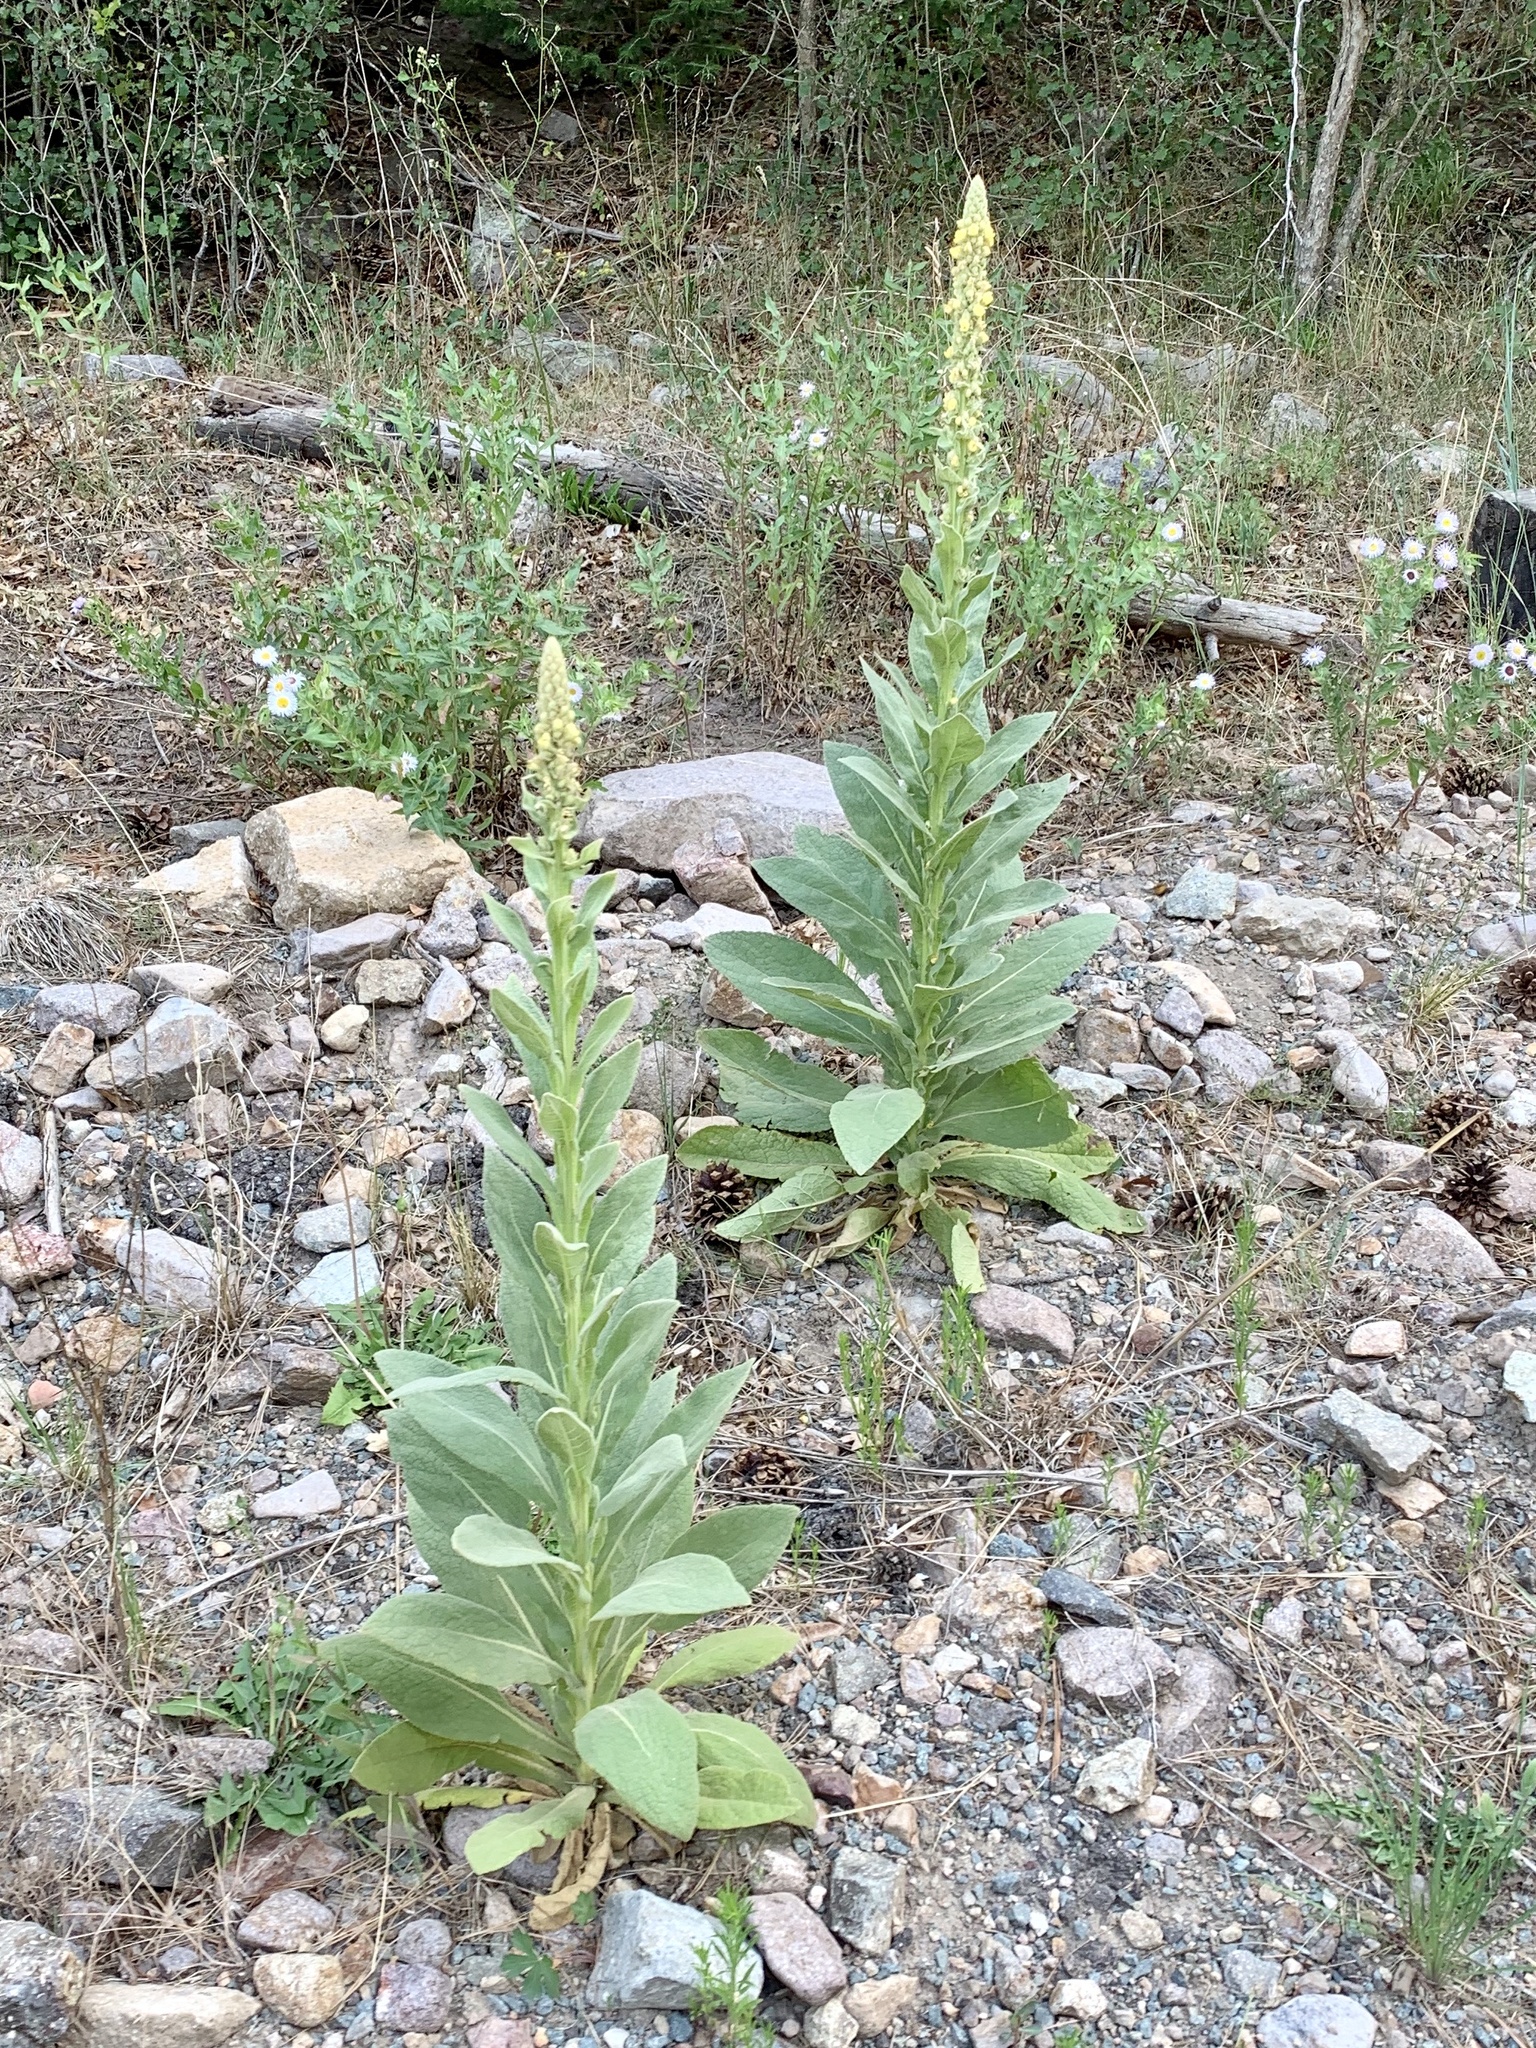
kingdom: Plantae
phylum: Tracheophyta
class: Magnoliopsida
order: Lamiales
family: Scrophulariaceae
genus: Verbascum
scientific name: Verbascum thapsus
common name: Common mullein
